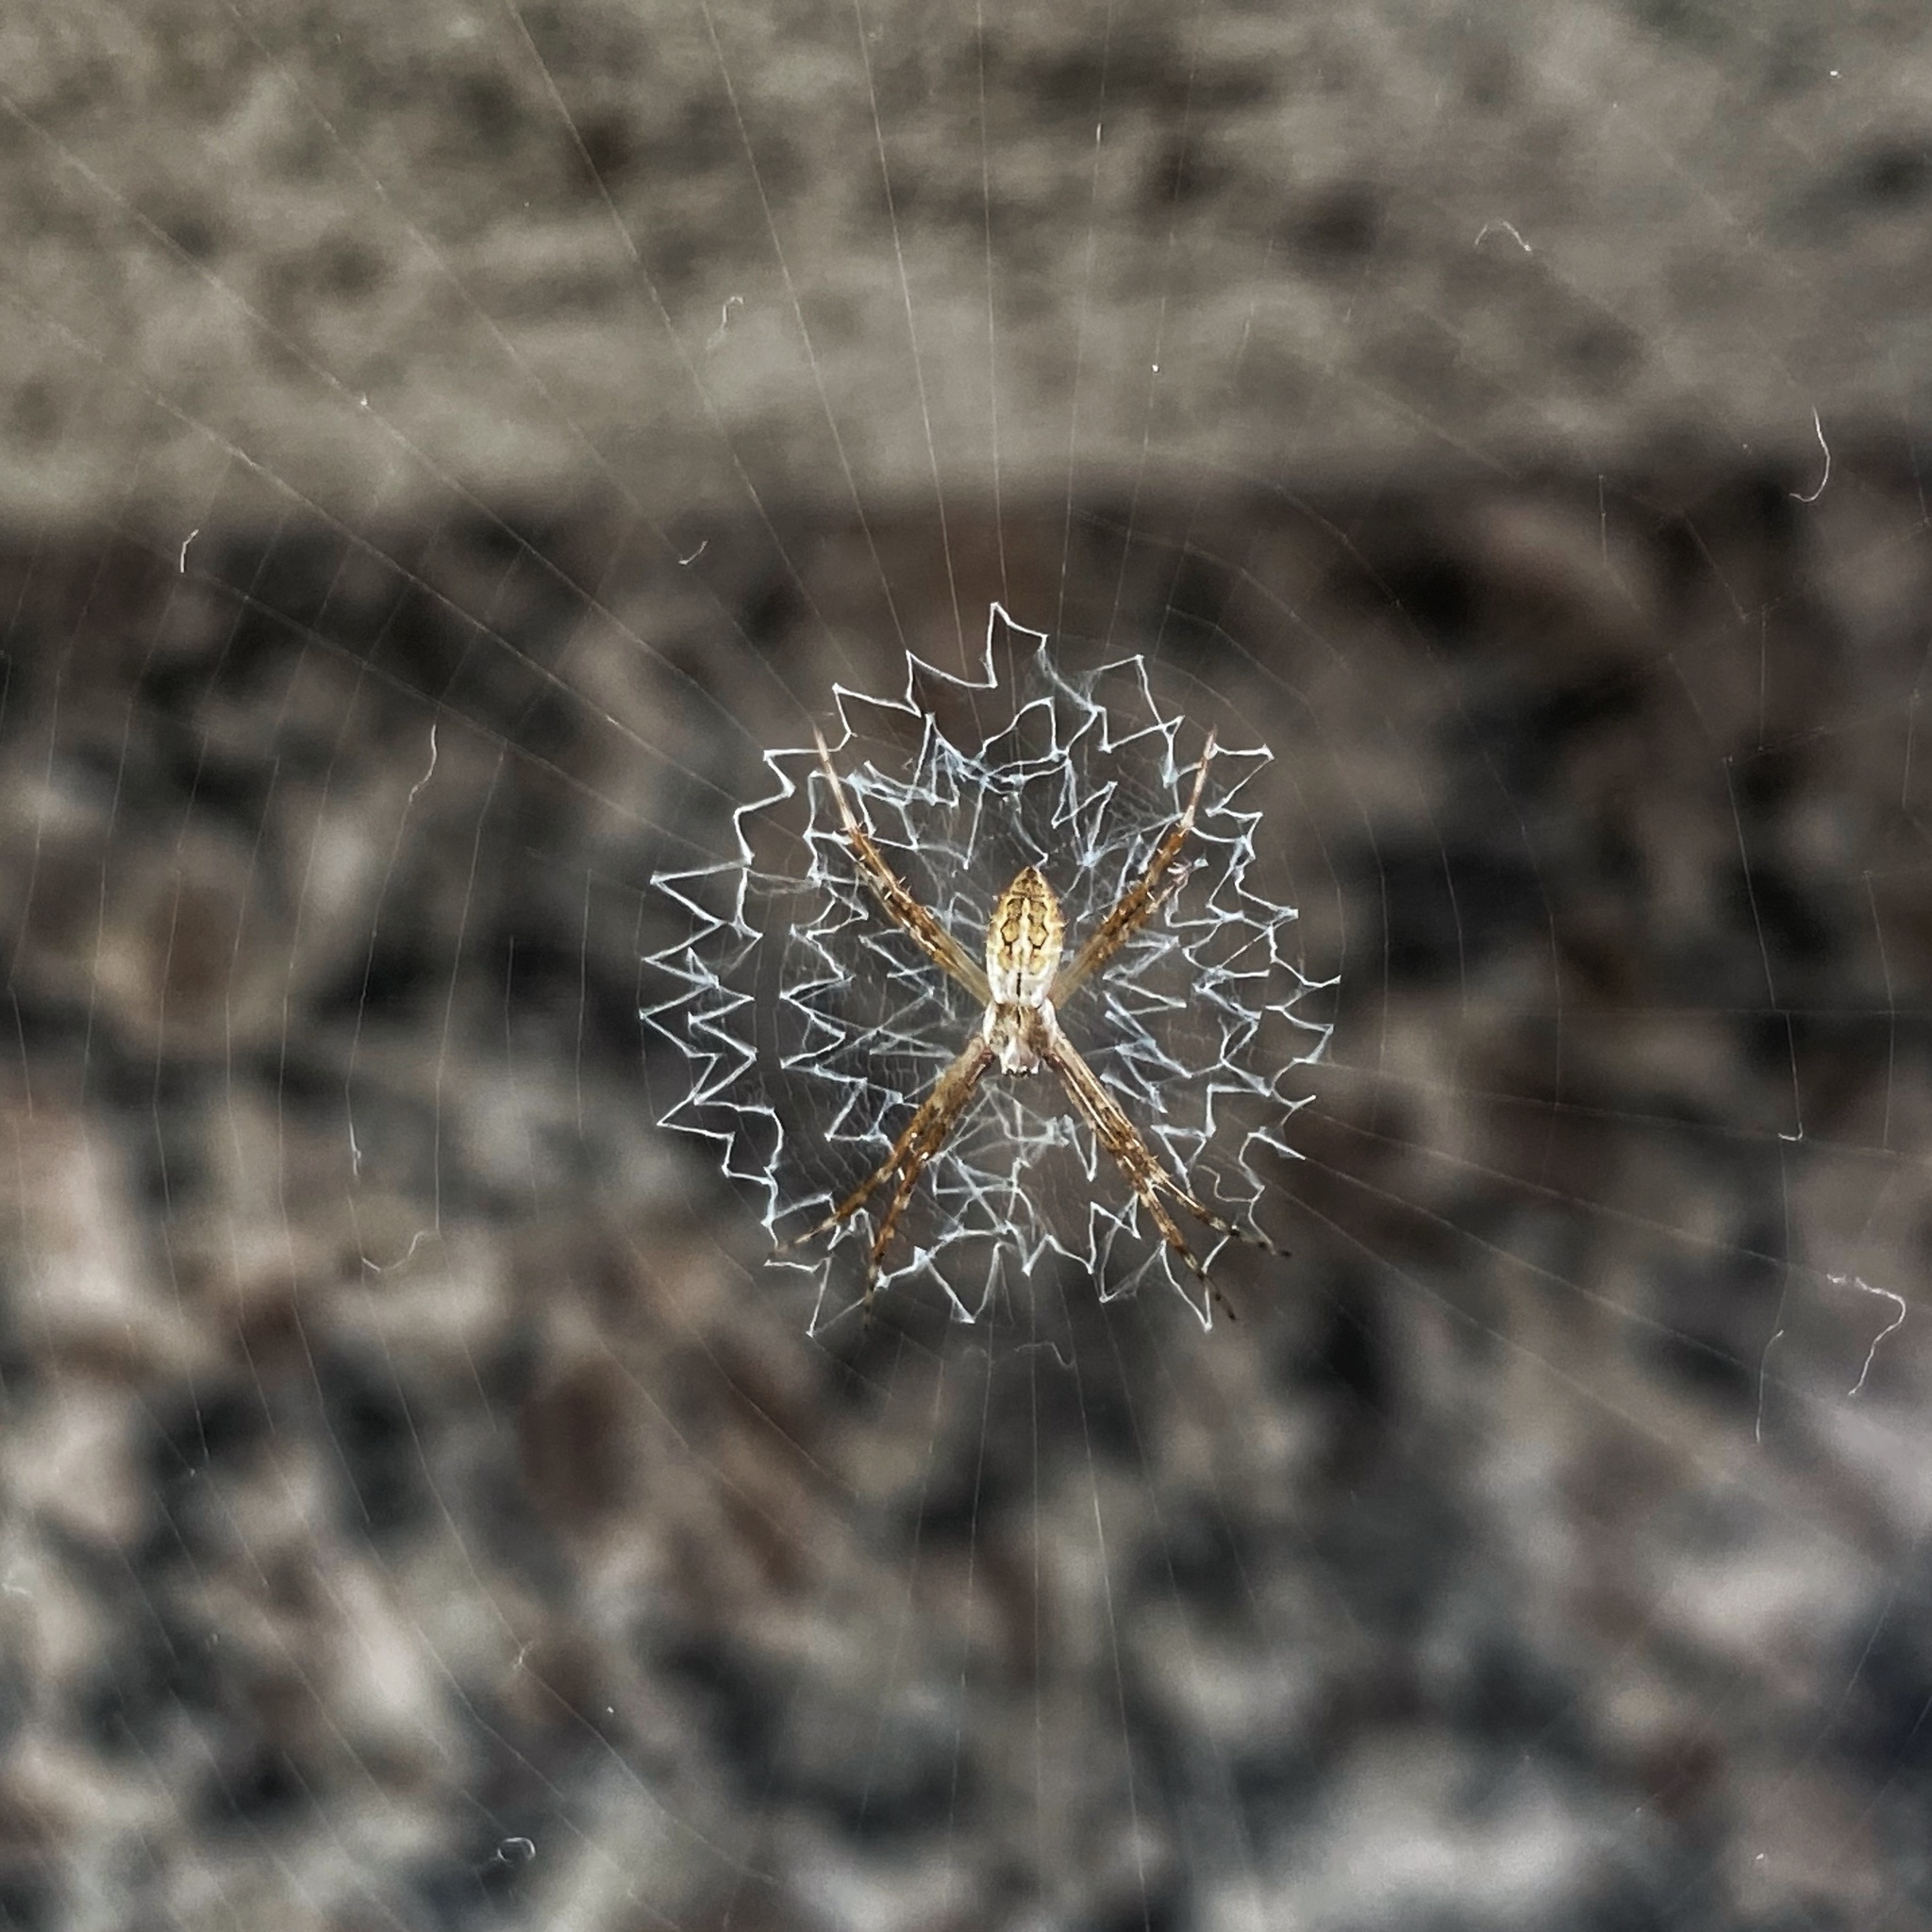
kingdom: Animalia
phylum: Arthropoda
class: Arachnida
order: Araneae
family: Araneidae
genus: Argiope
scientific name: Argiope argentata
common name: Orb weavers
